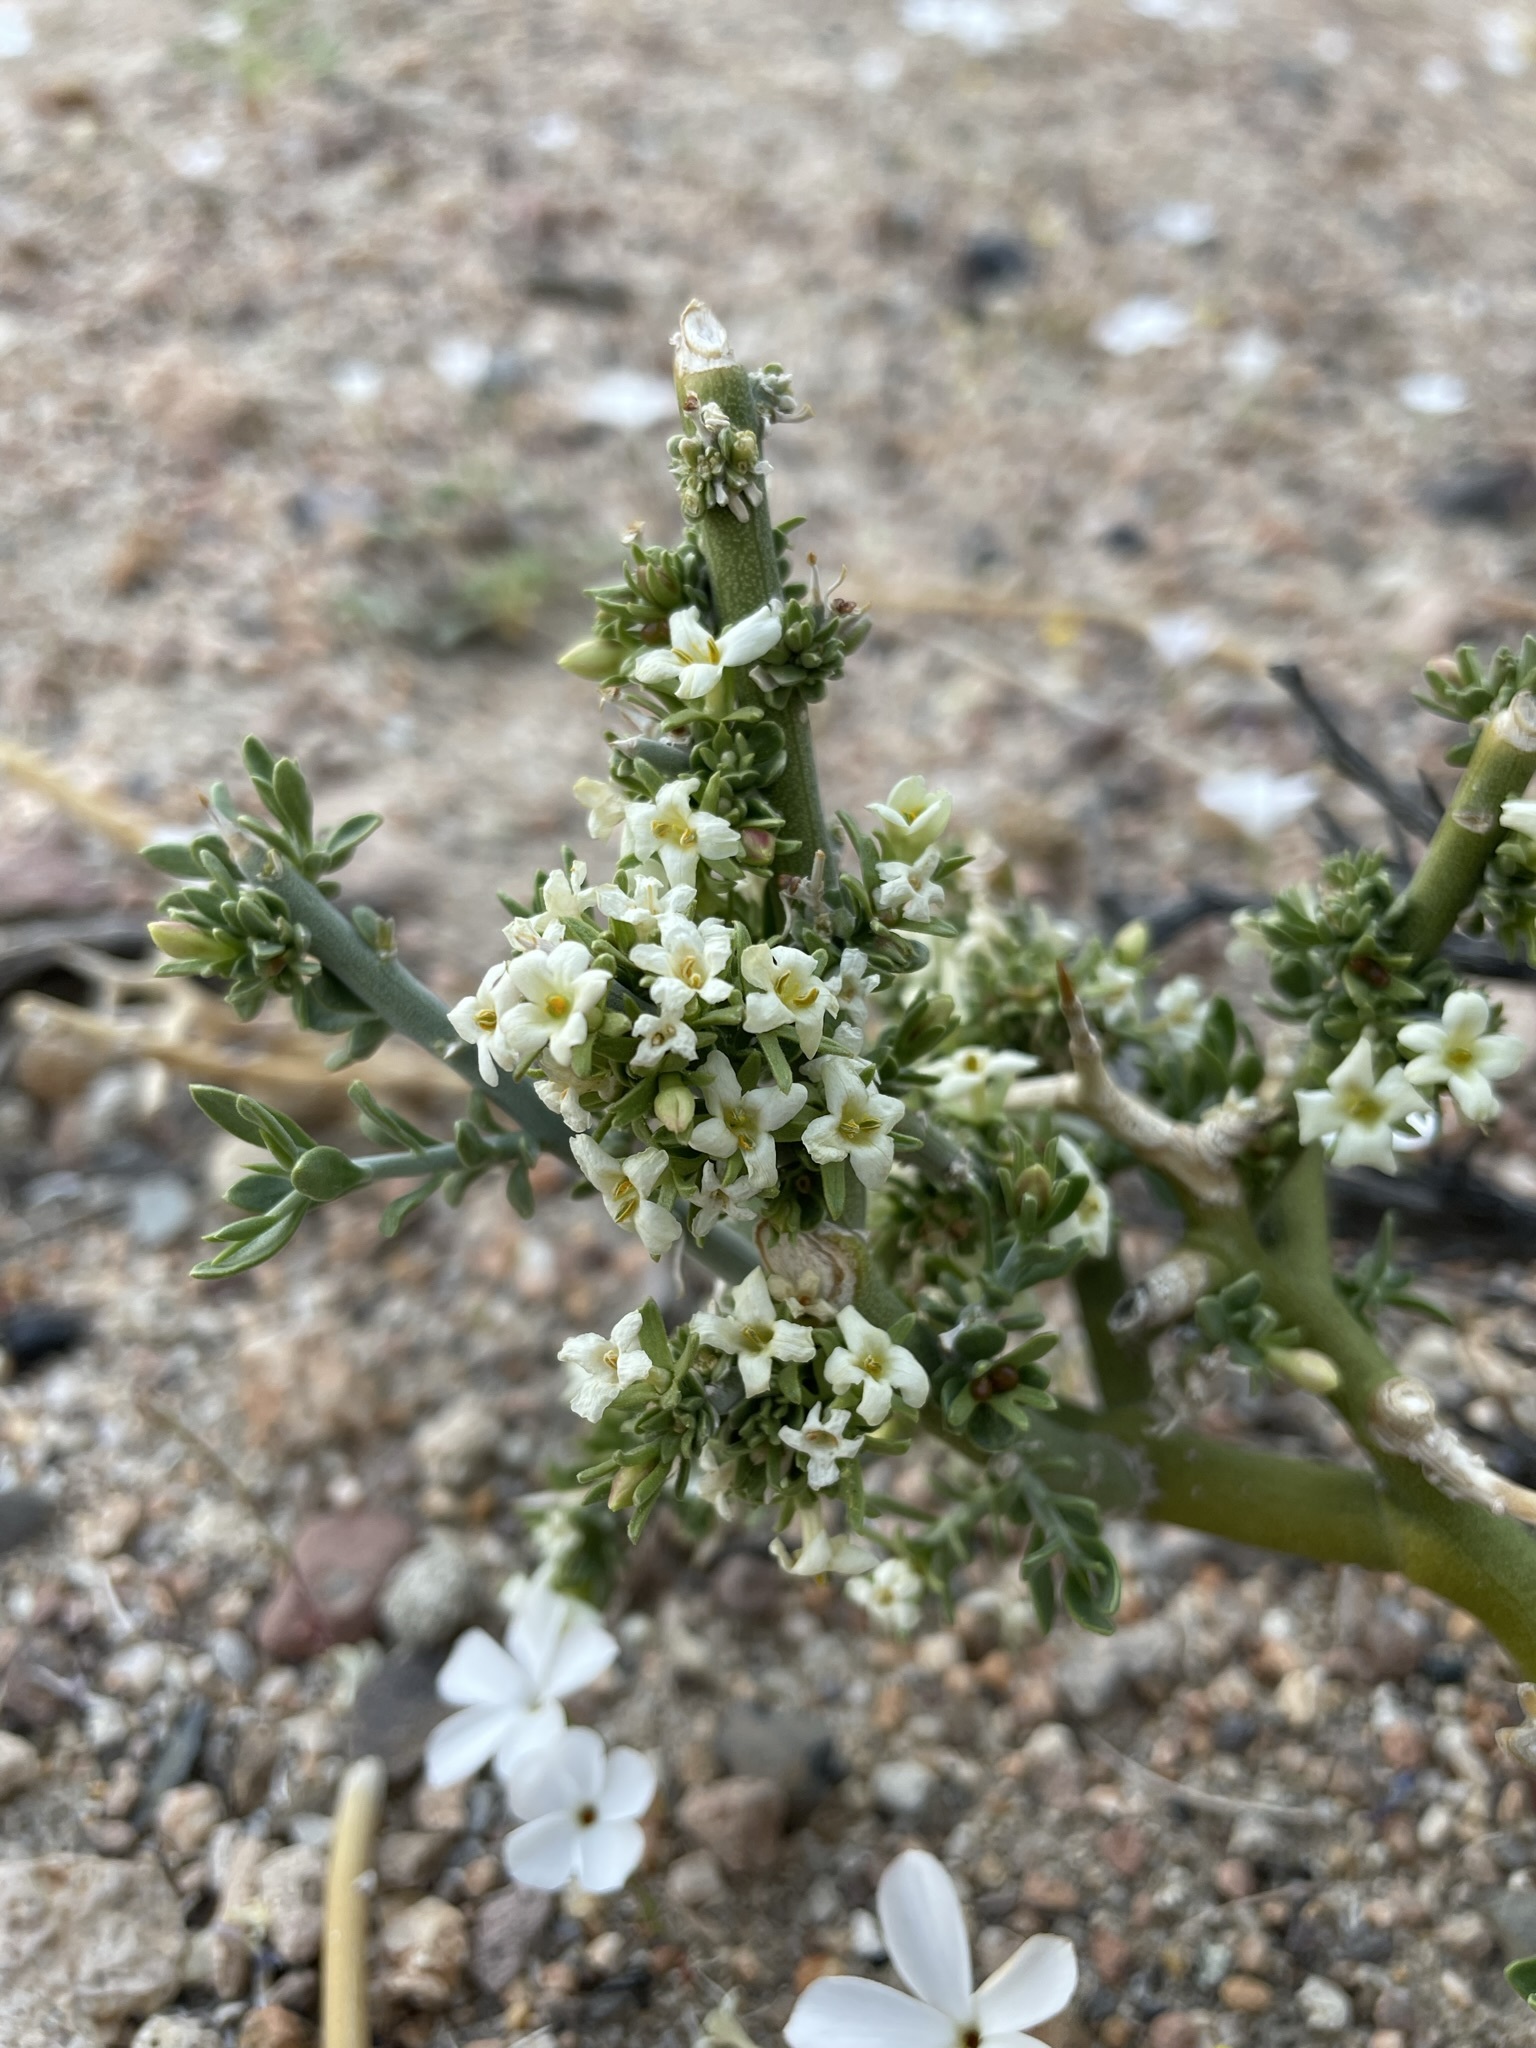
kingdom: Plantae
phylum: Tracheophyta
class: Magnoliopsida
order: Lamiales
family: Oleaceae
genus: Menodora
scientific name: Menodora spinescens
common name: Spiny menodora
